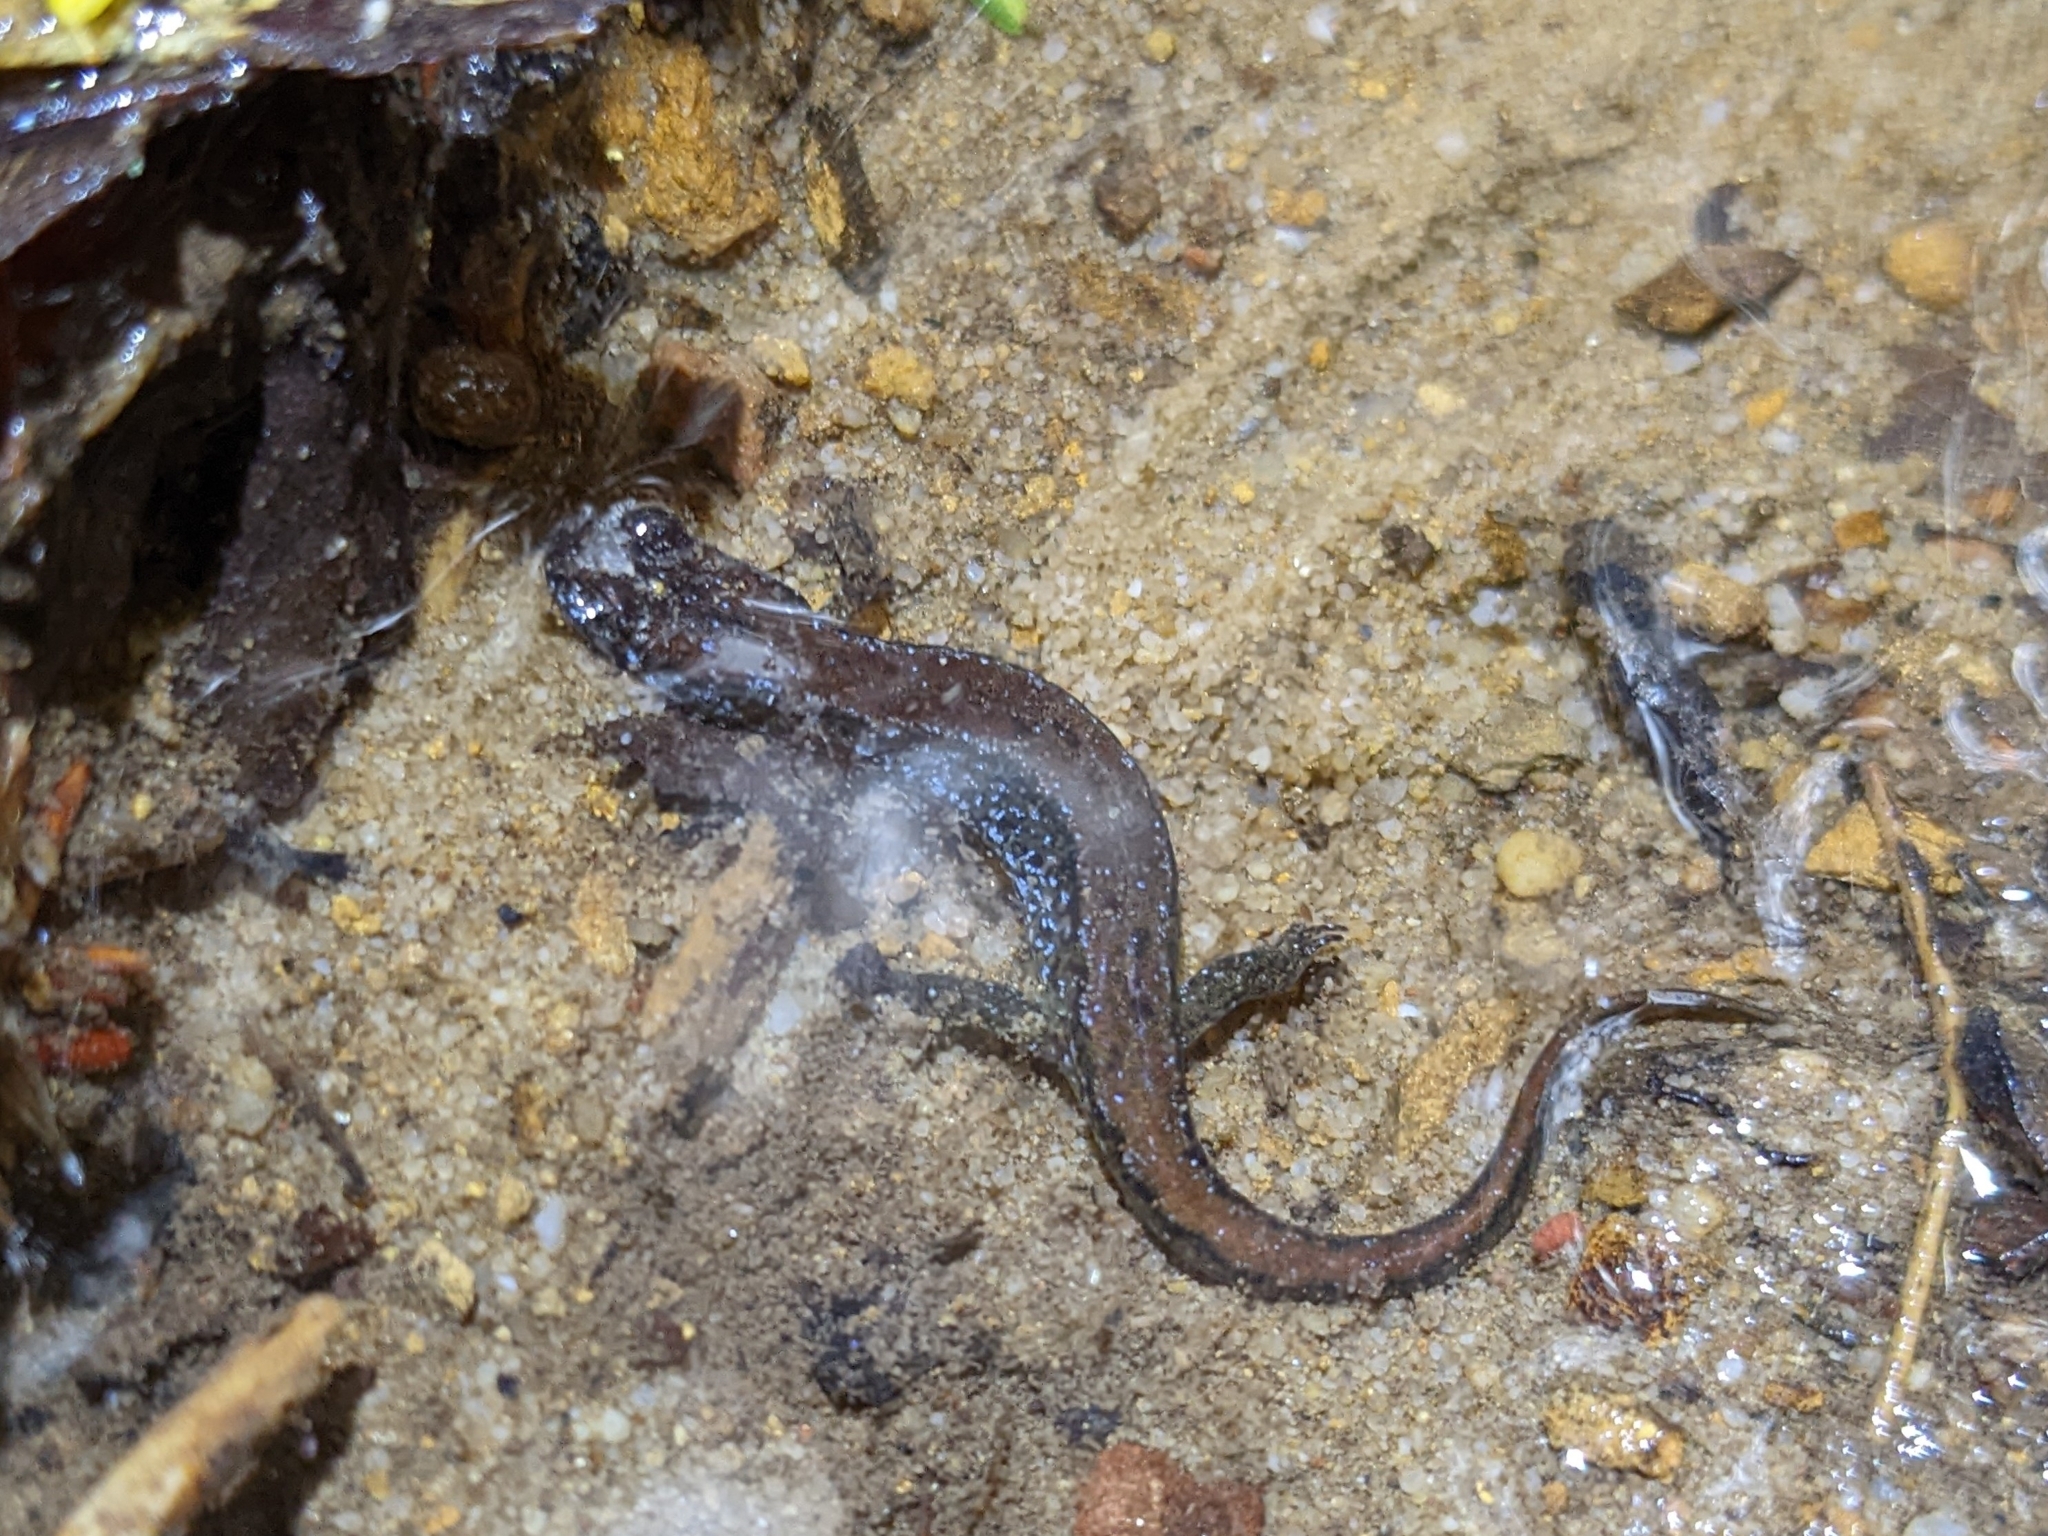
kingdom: Animalia
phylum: Chordata
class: Amphibia
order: Caudata
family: Plethodontidae
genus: Desmognathus
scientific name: Desmognathus fuscus
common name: Northern dusky salamander
